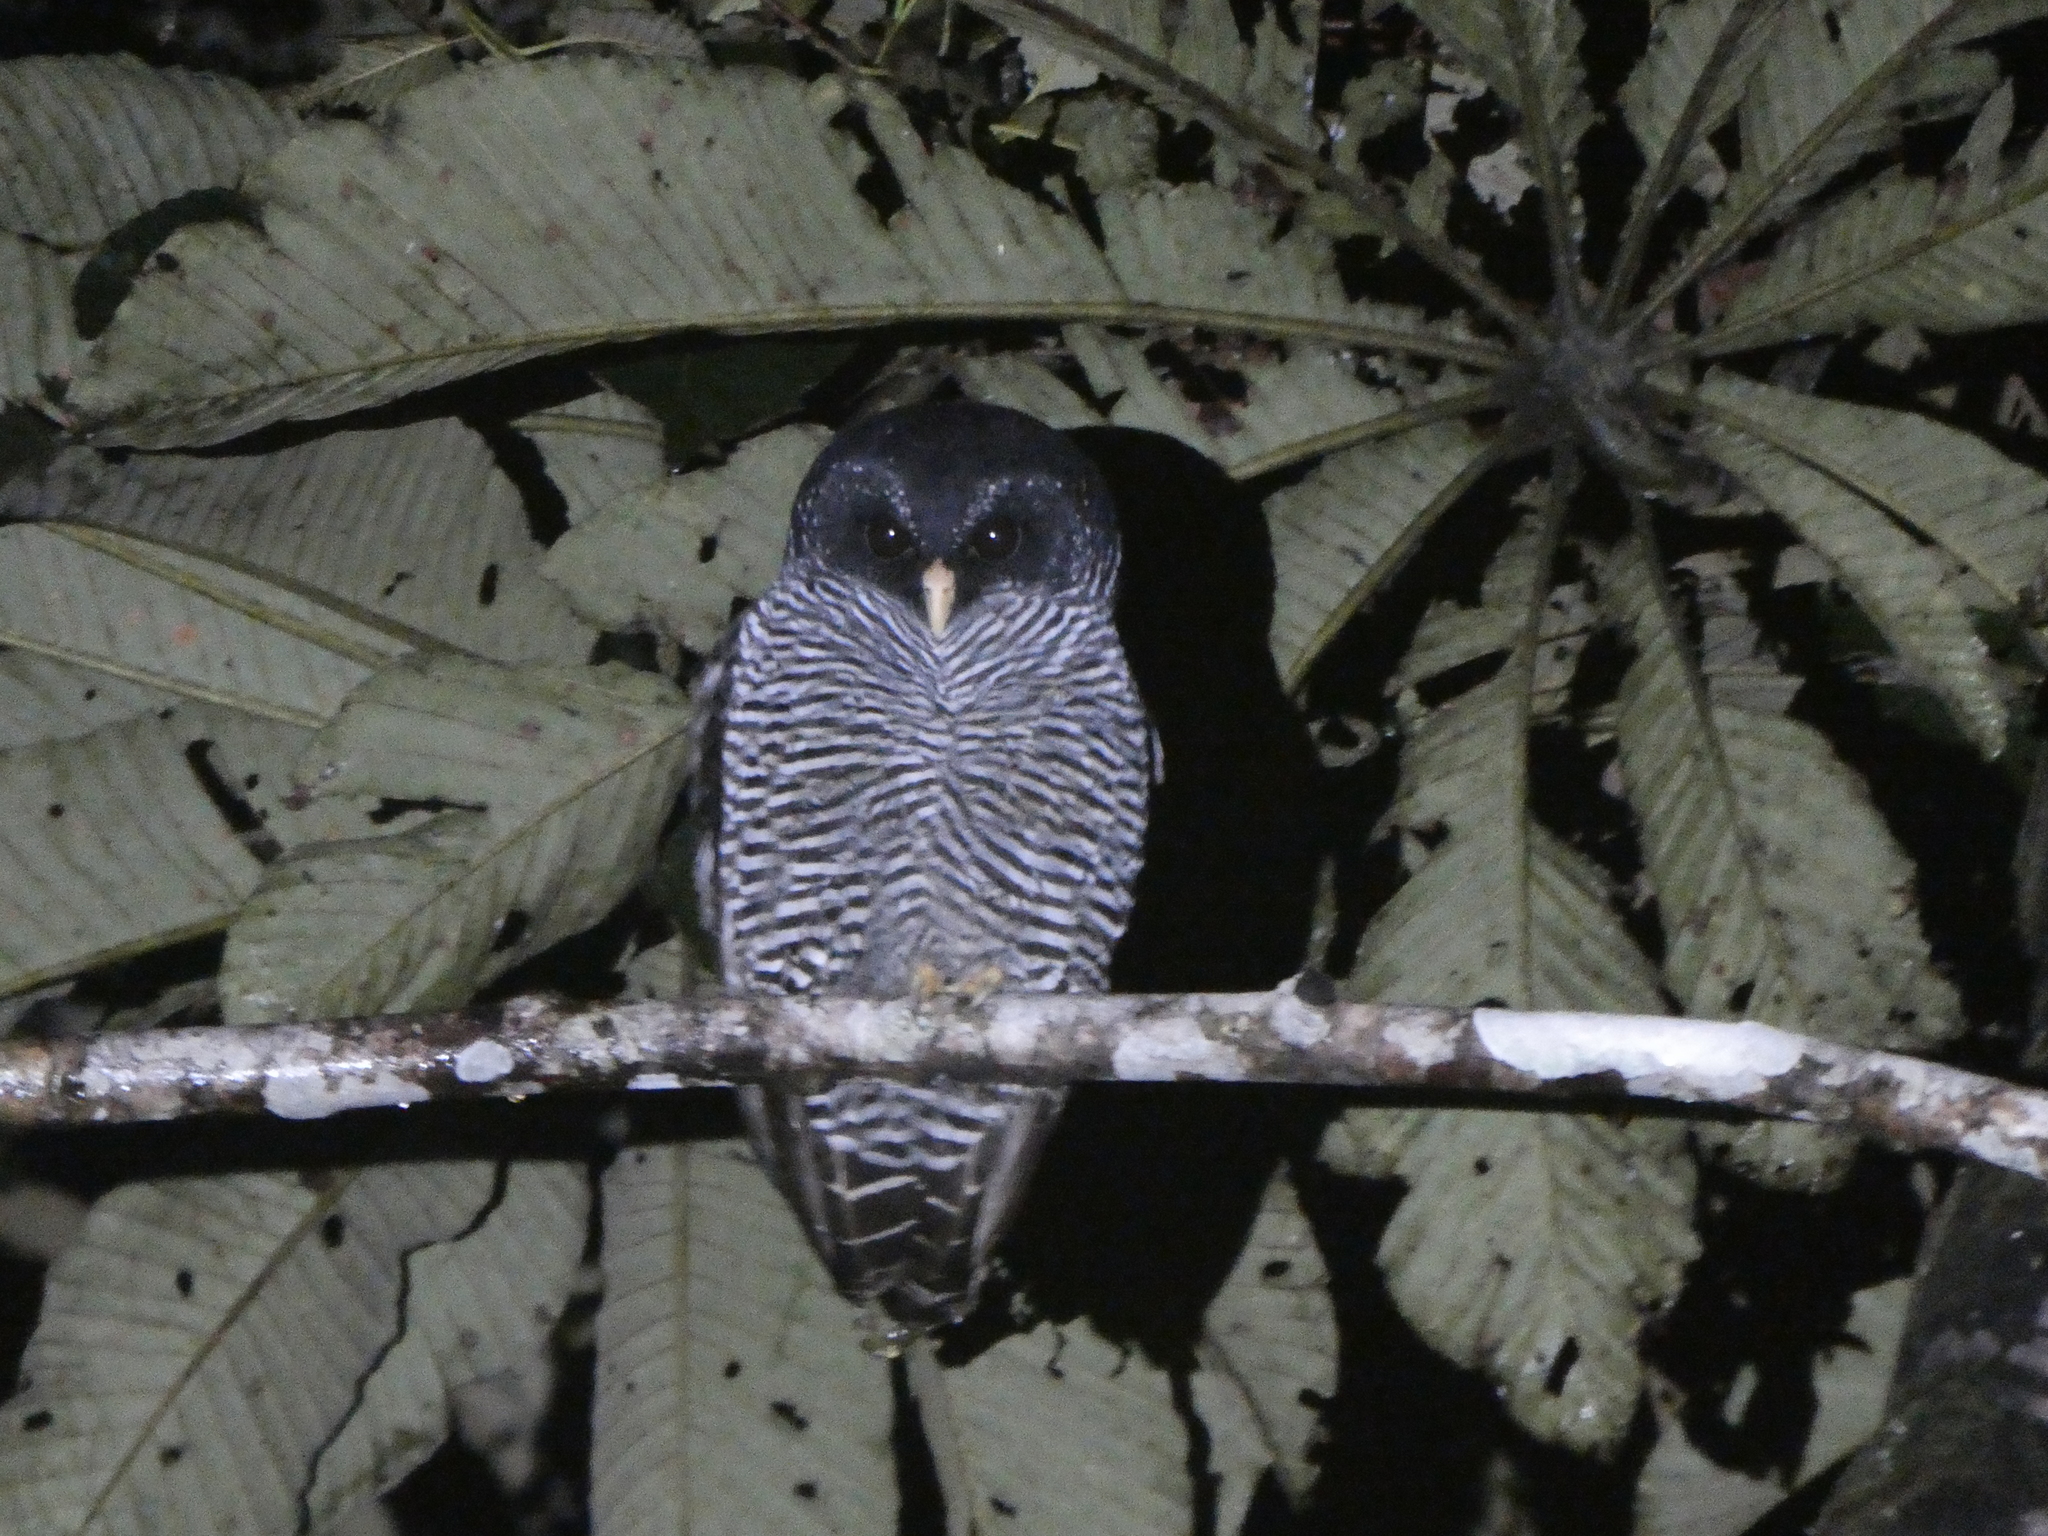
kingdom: Animalia
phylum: Chordata
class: Aves
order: Strigiformes
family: Strigidae
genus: Strix
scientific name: Strix huhula
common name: Black-banded owl
